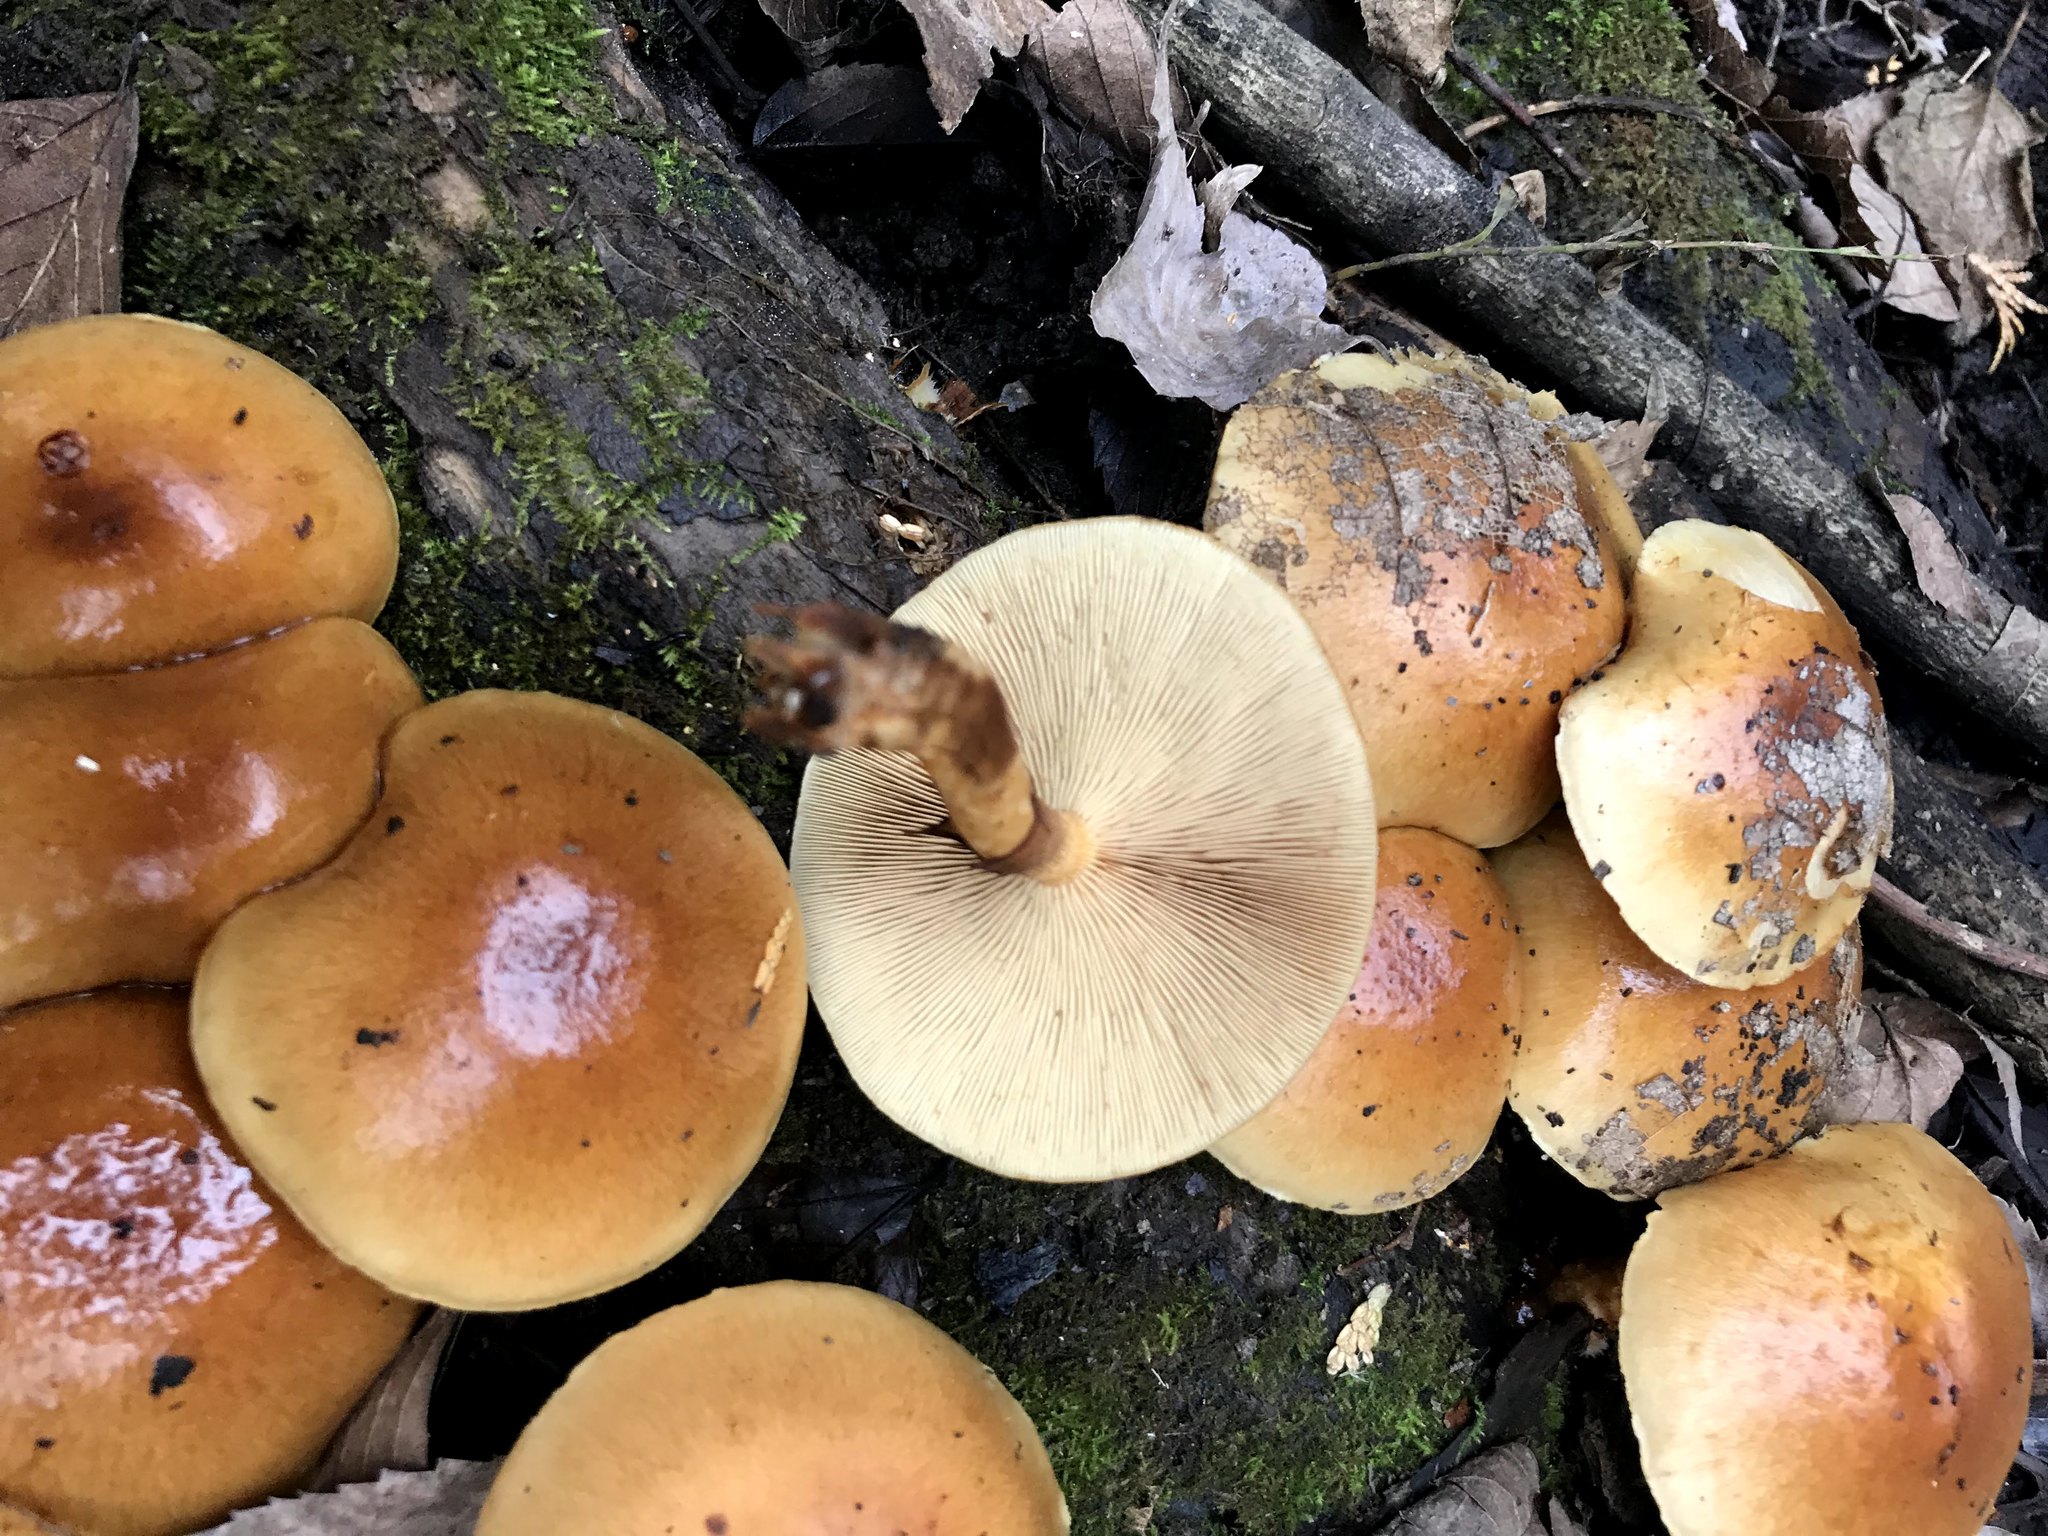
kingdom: Fungi
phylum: Basidiomycota
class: Agaricomycetes
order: Agaricales
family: Strophariaceae
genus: Pholiota
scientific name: Pholiota microspora
